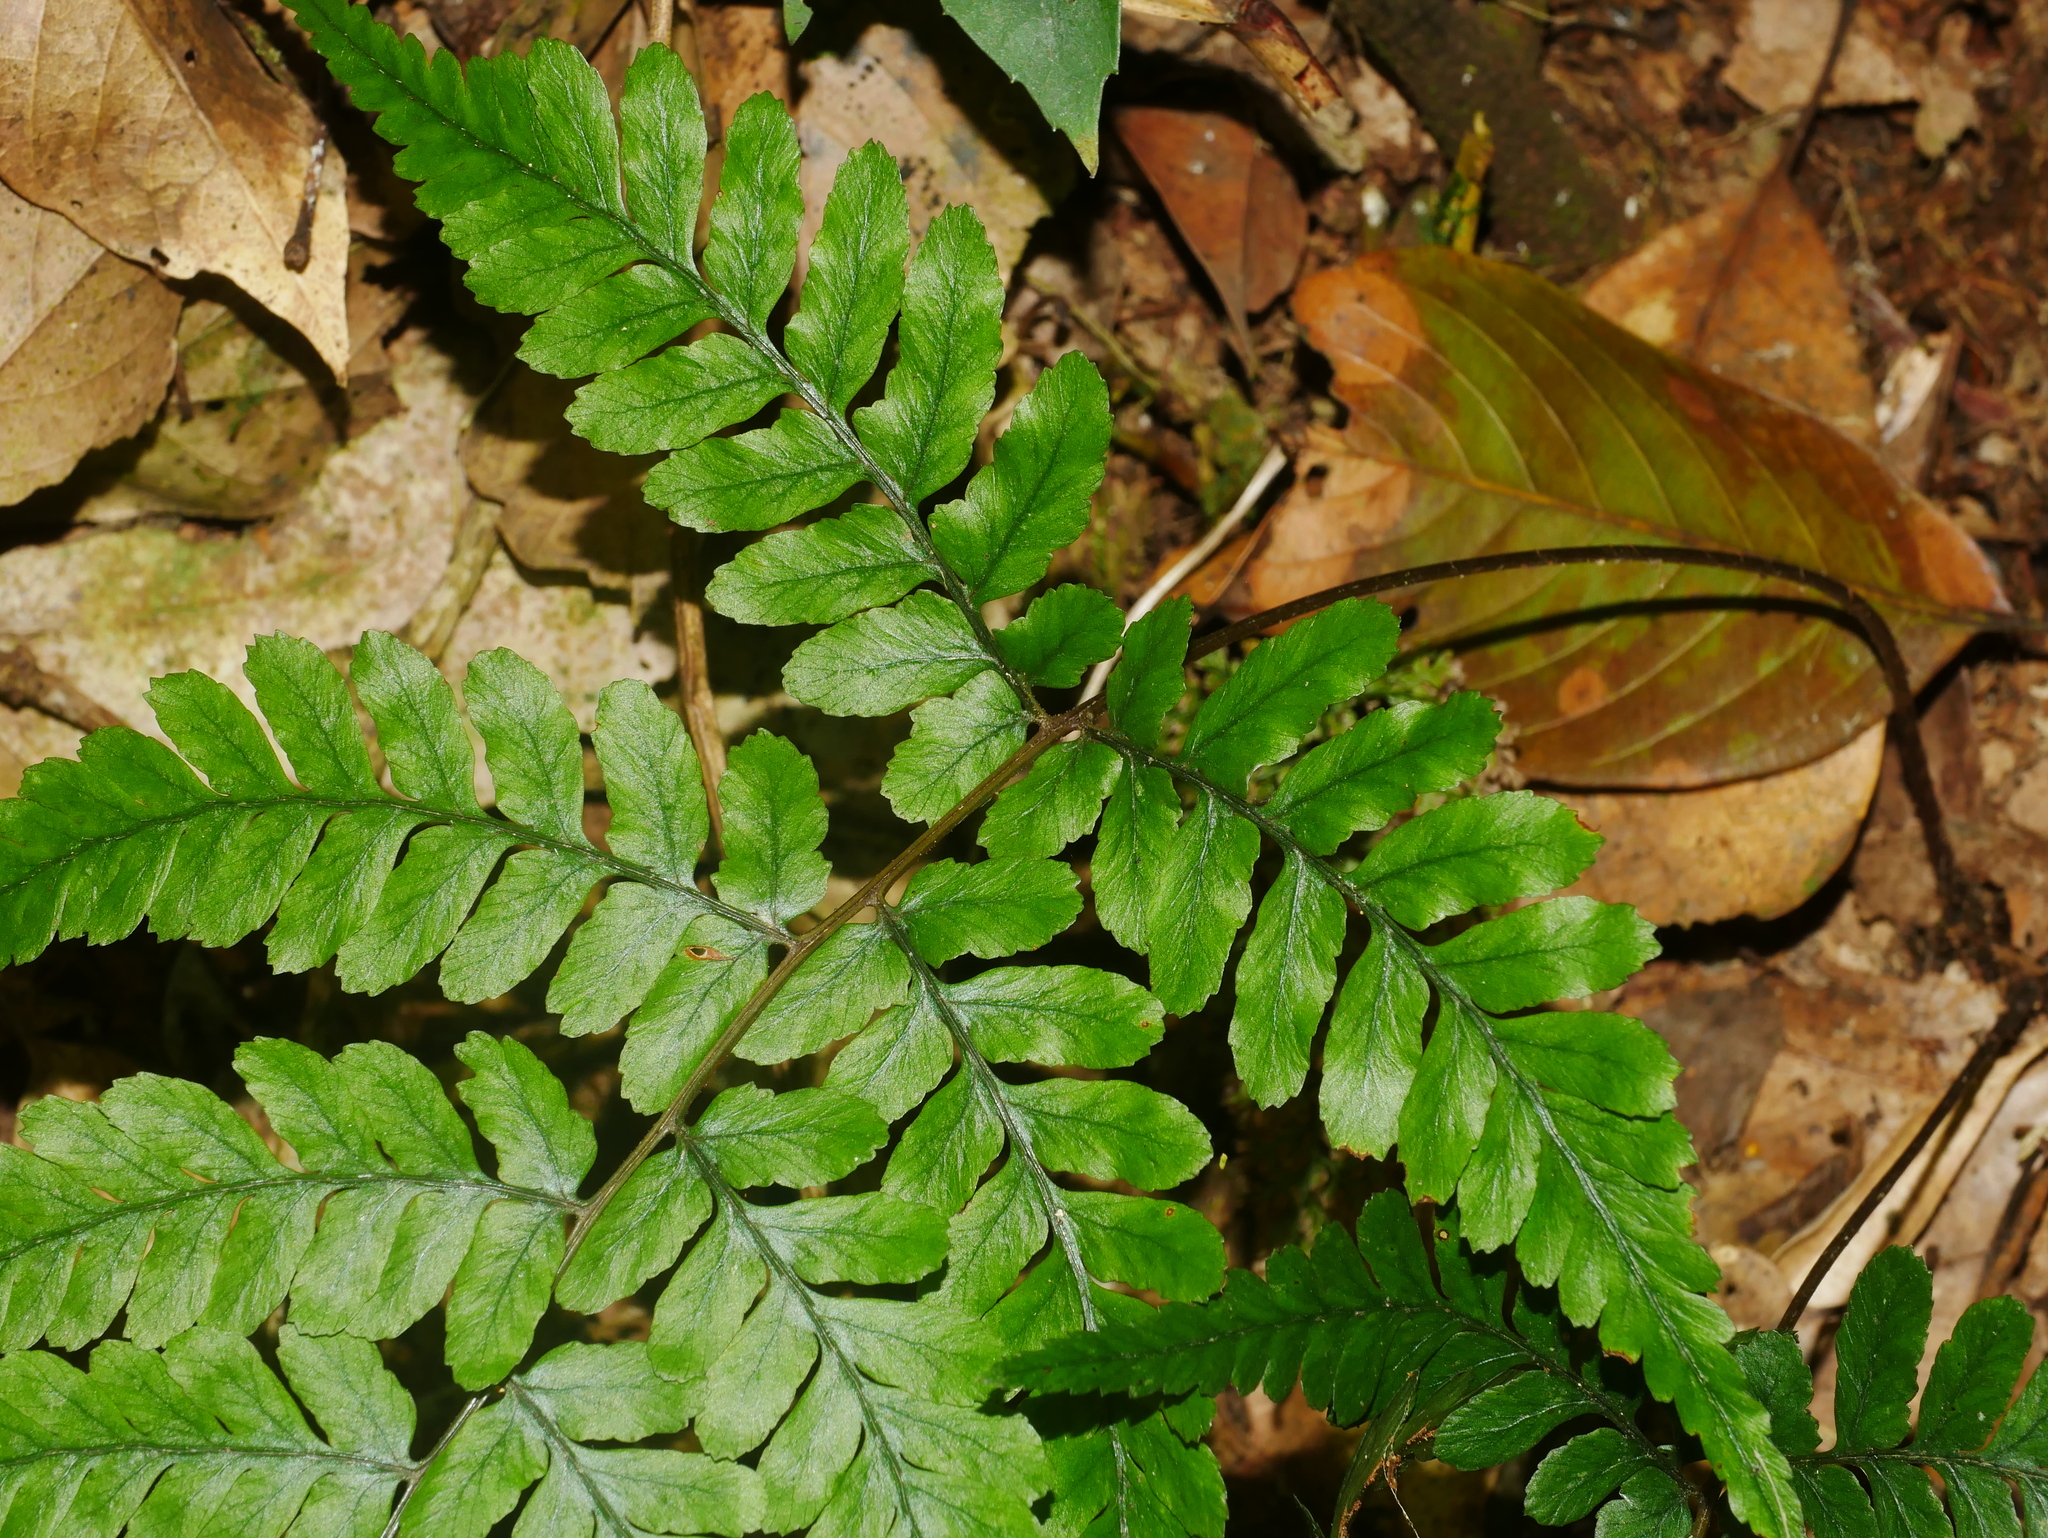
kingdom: Plantae
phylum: Tracheophyta
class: Polypodiopsida
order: Polypodiales
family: Athyriaceae
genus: Athyrium
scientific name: Athyrium arisanense
